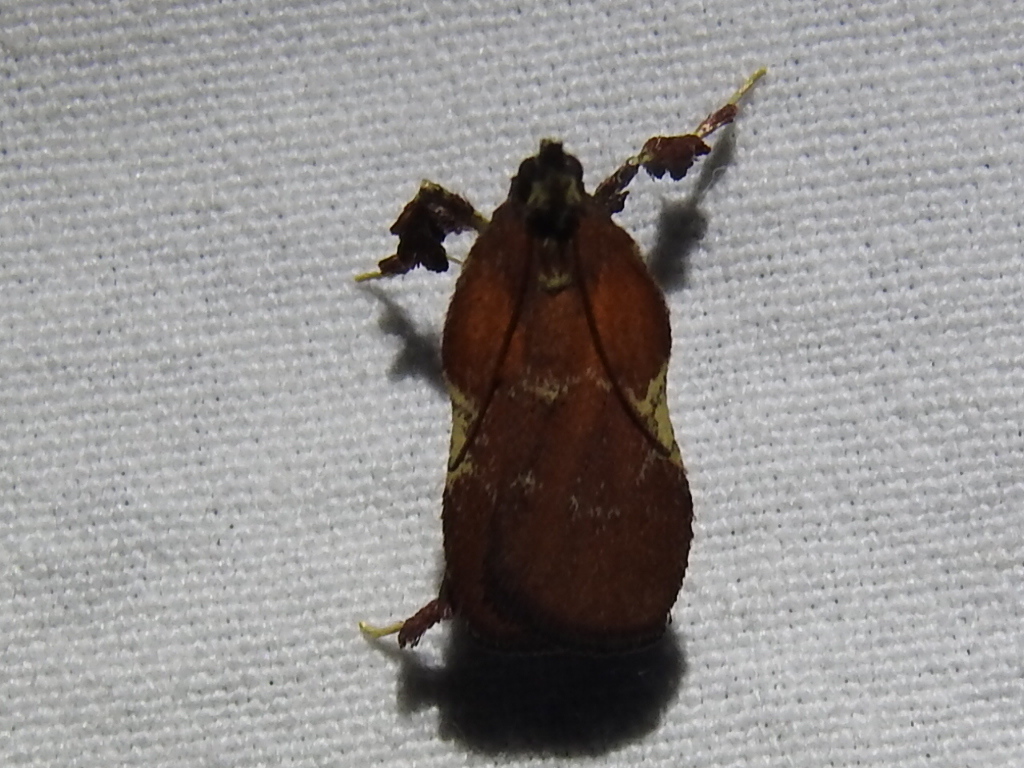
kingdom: Animalia
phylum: Arthropoda
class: Insecta
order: Lepidoptera
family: Pyralidae
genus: Galasa
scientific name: Galasa nigrinodis
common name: Boxwood leaftier moth
